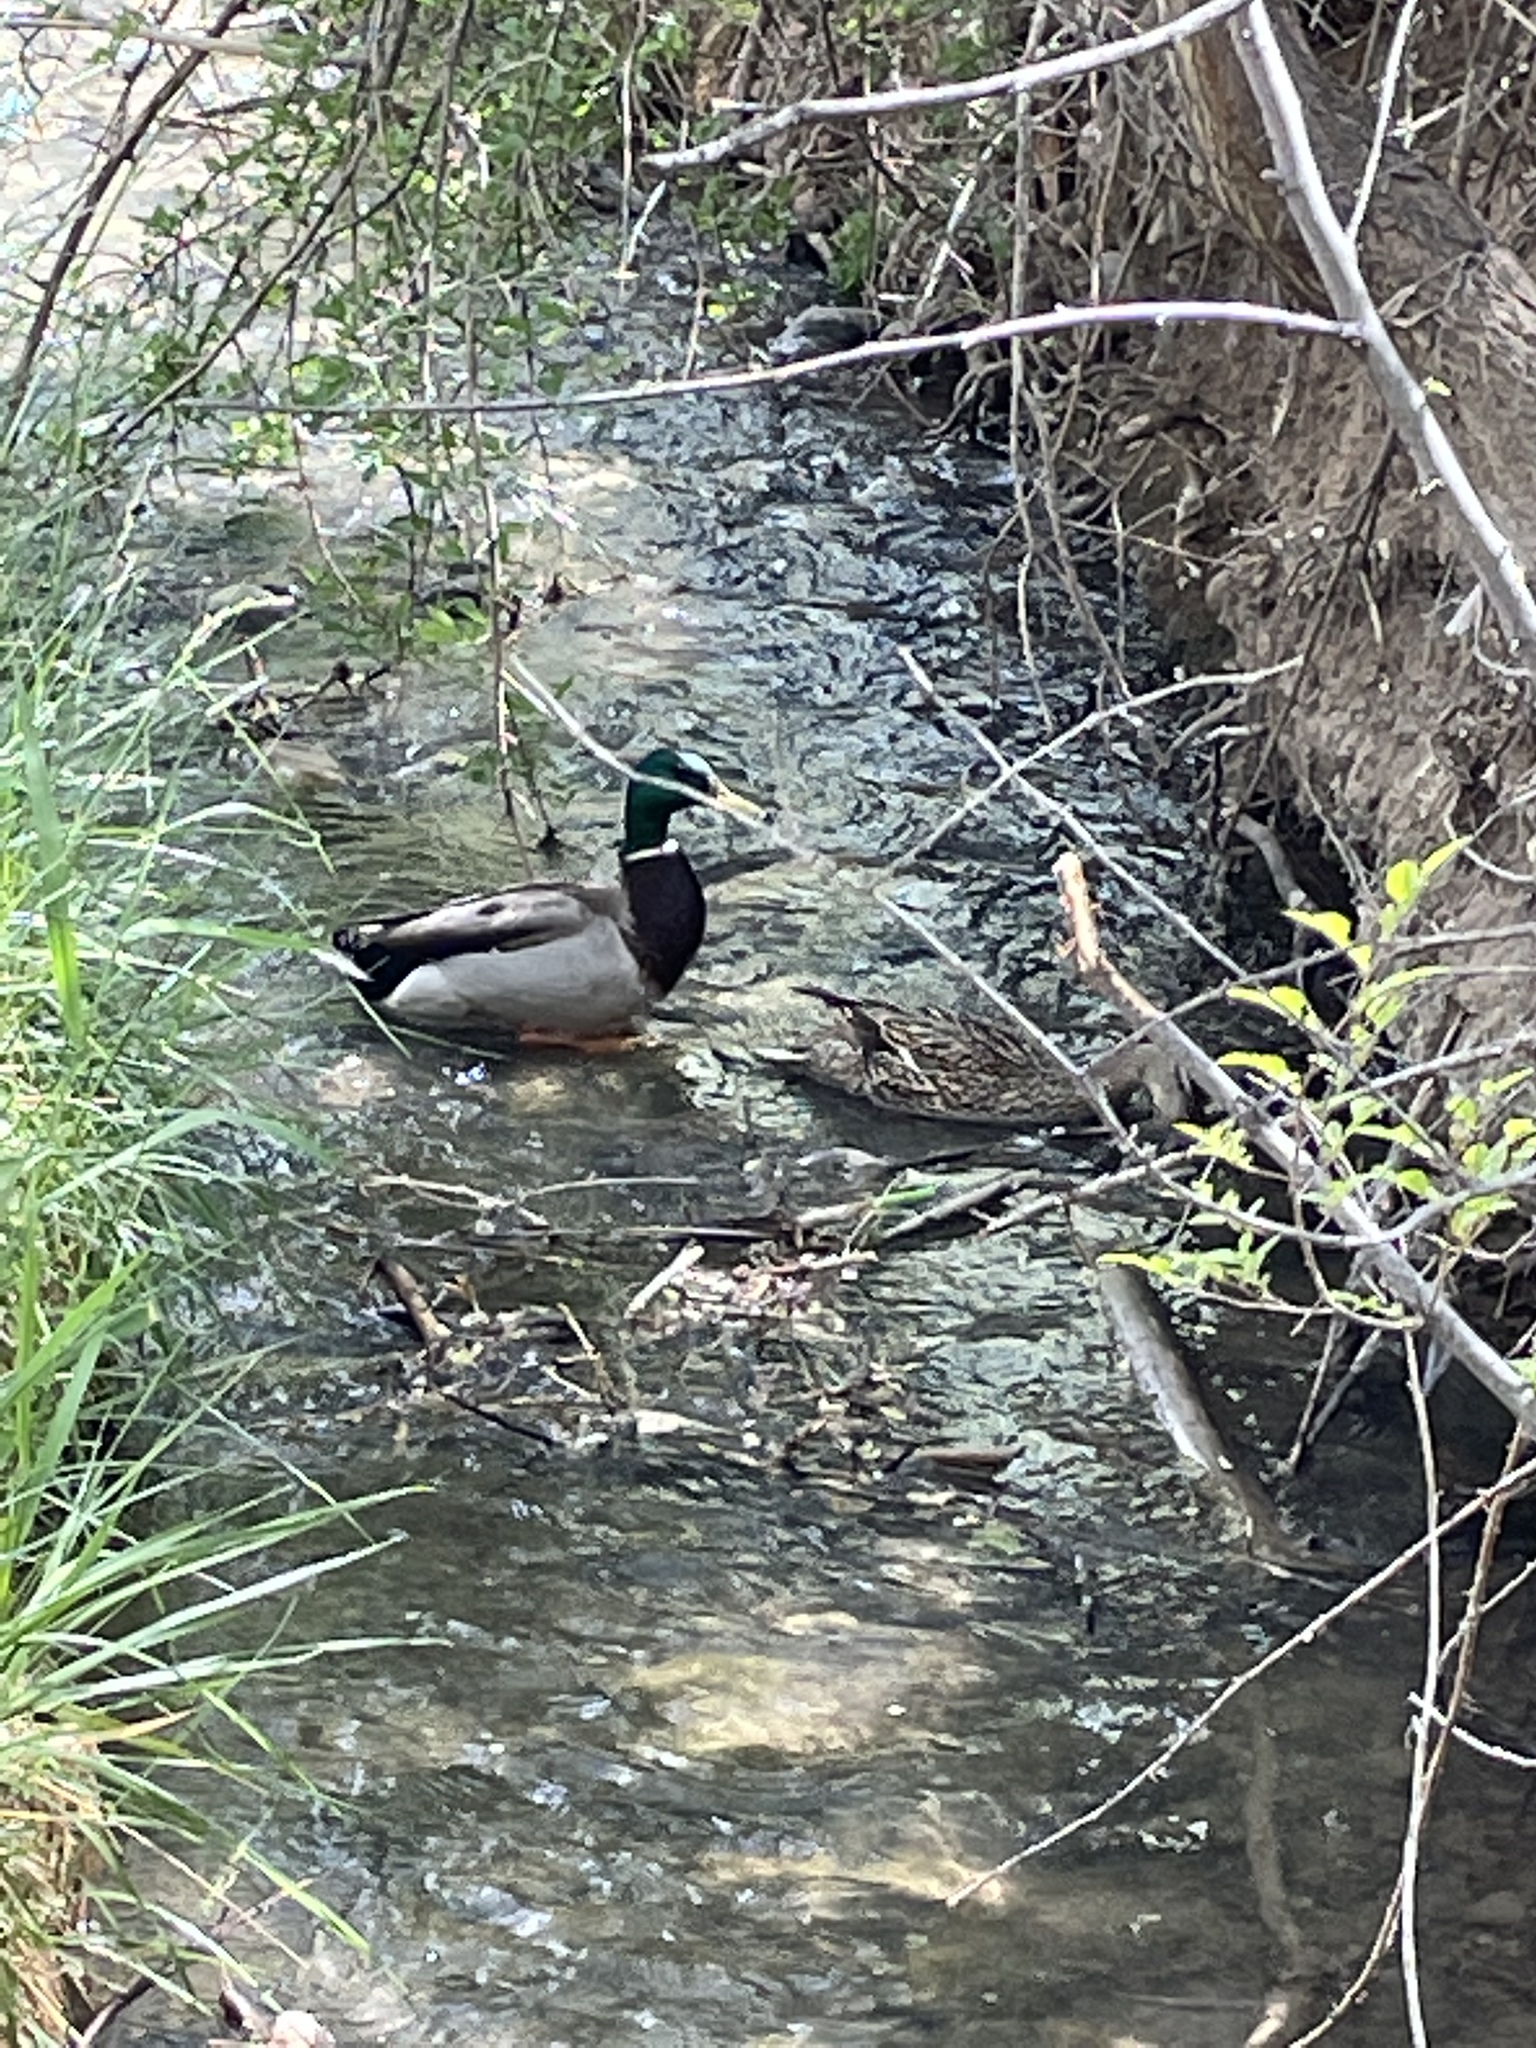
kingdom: Animalia
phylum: Chordata
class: Aves
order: Anseriformes
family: Anatidae
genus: Anas
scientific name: Anas platyrhynchos
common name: Mallard
